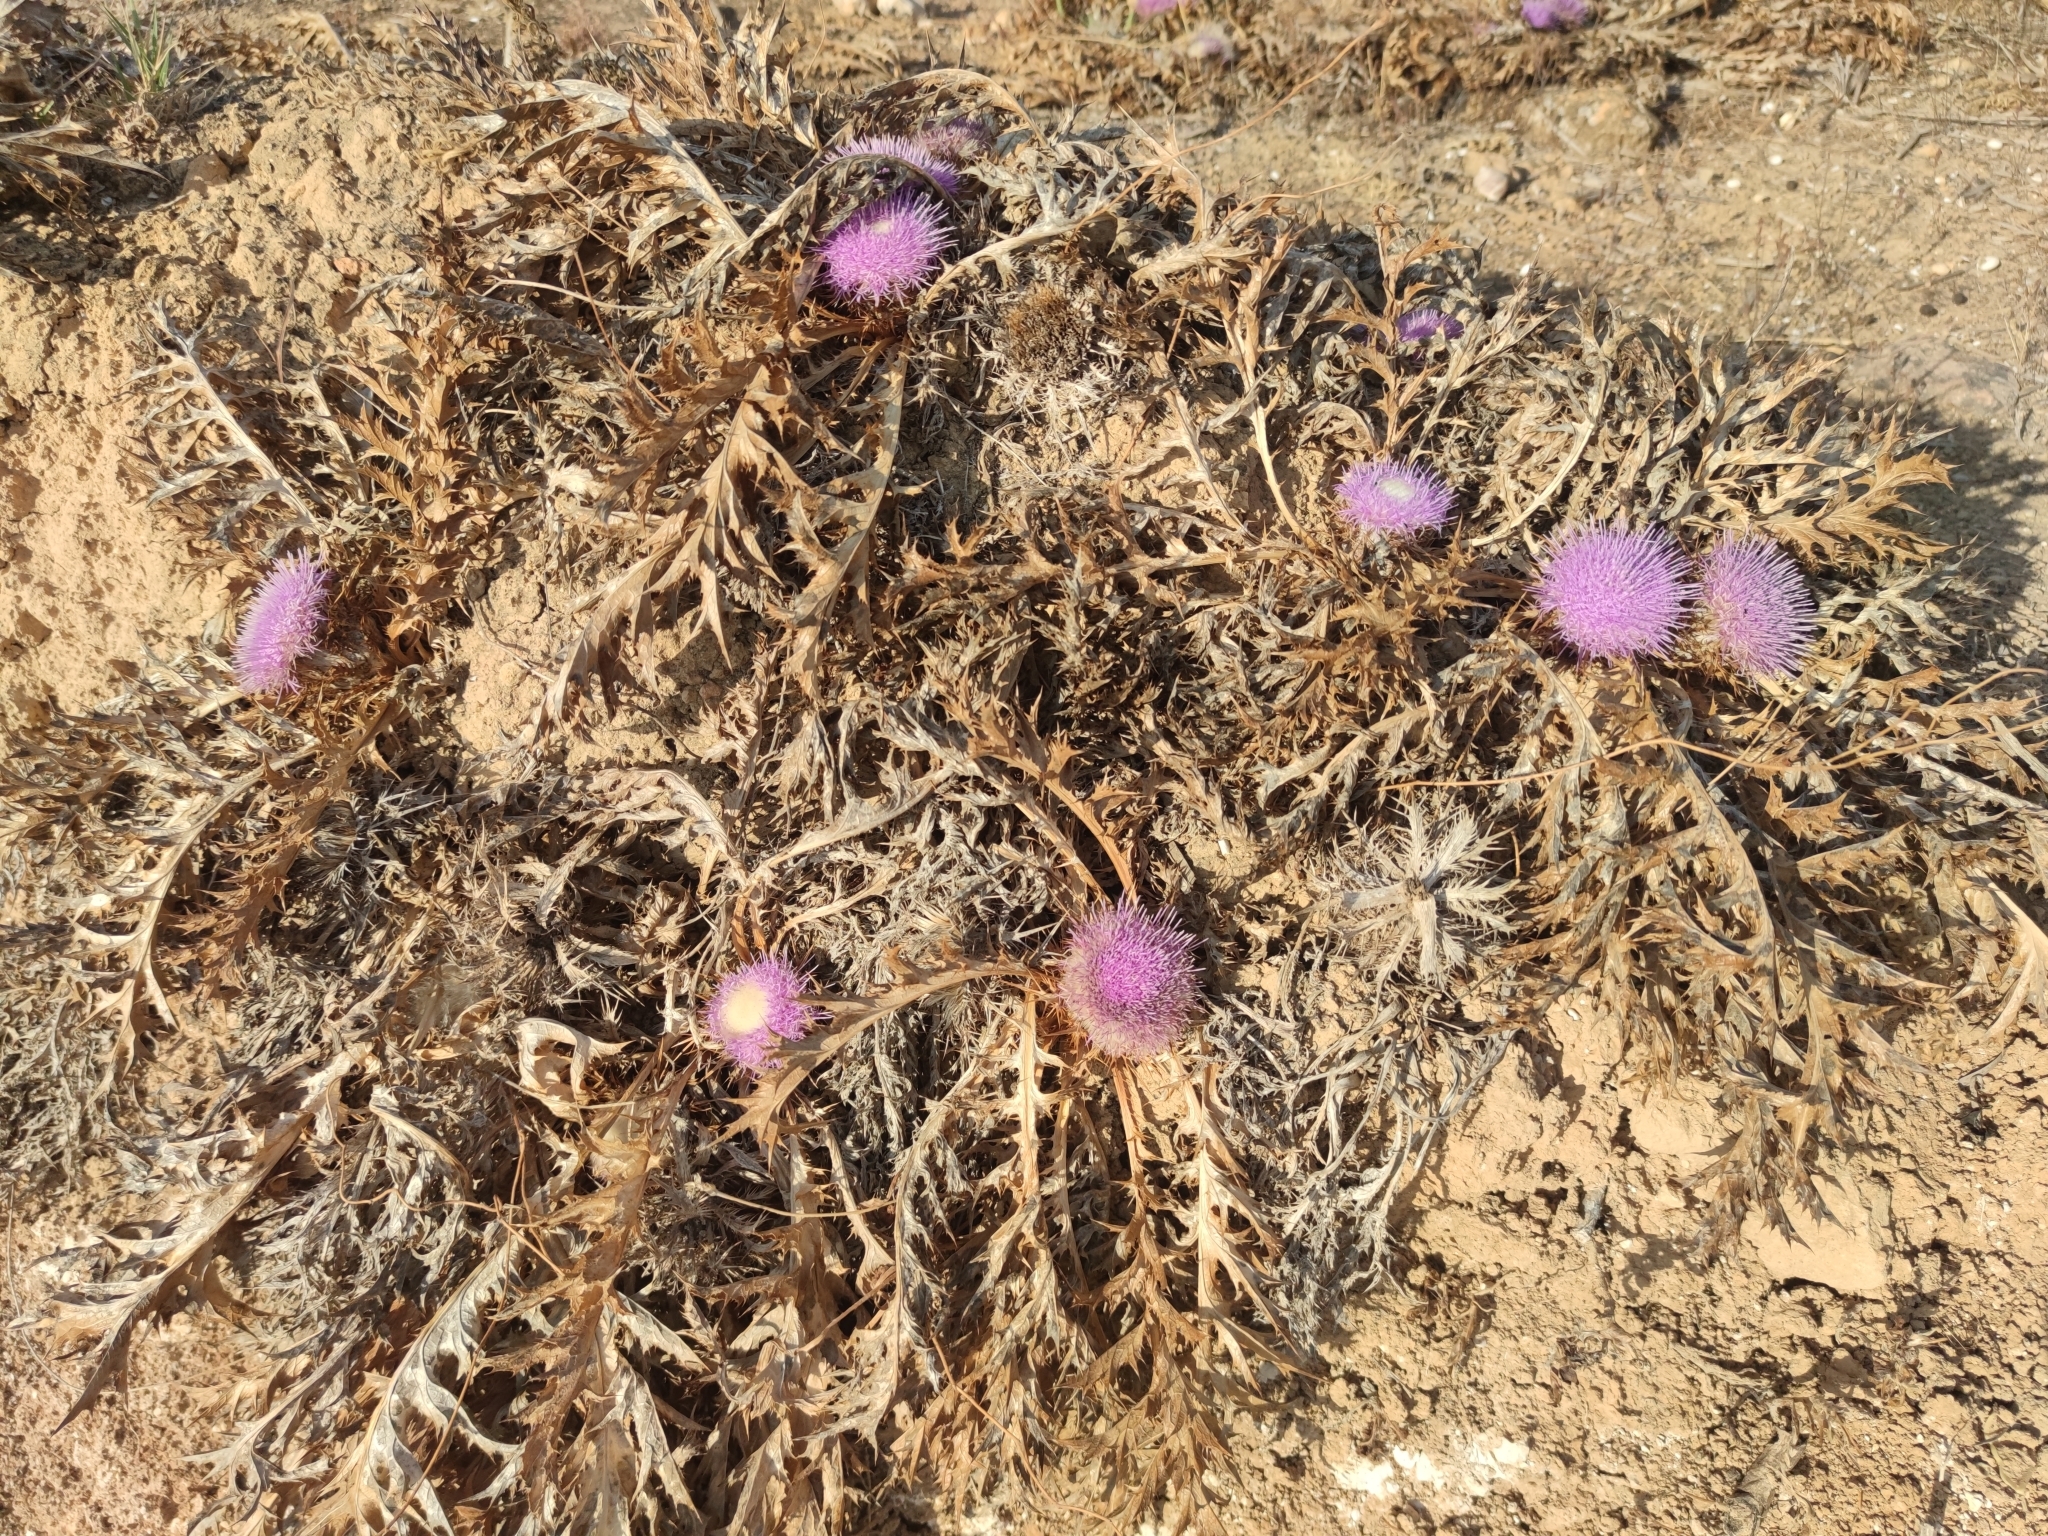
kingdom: Plantae
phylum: Tracheophyta
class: Magnoliopsida
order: Asterales
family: Asteraceae
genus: Chamaeleon
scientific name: Chamaeleon gummifer
